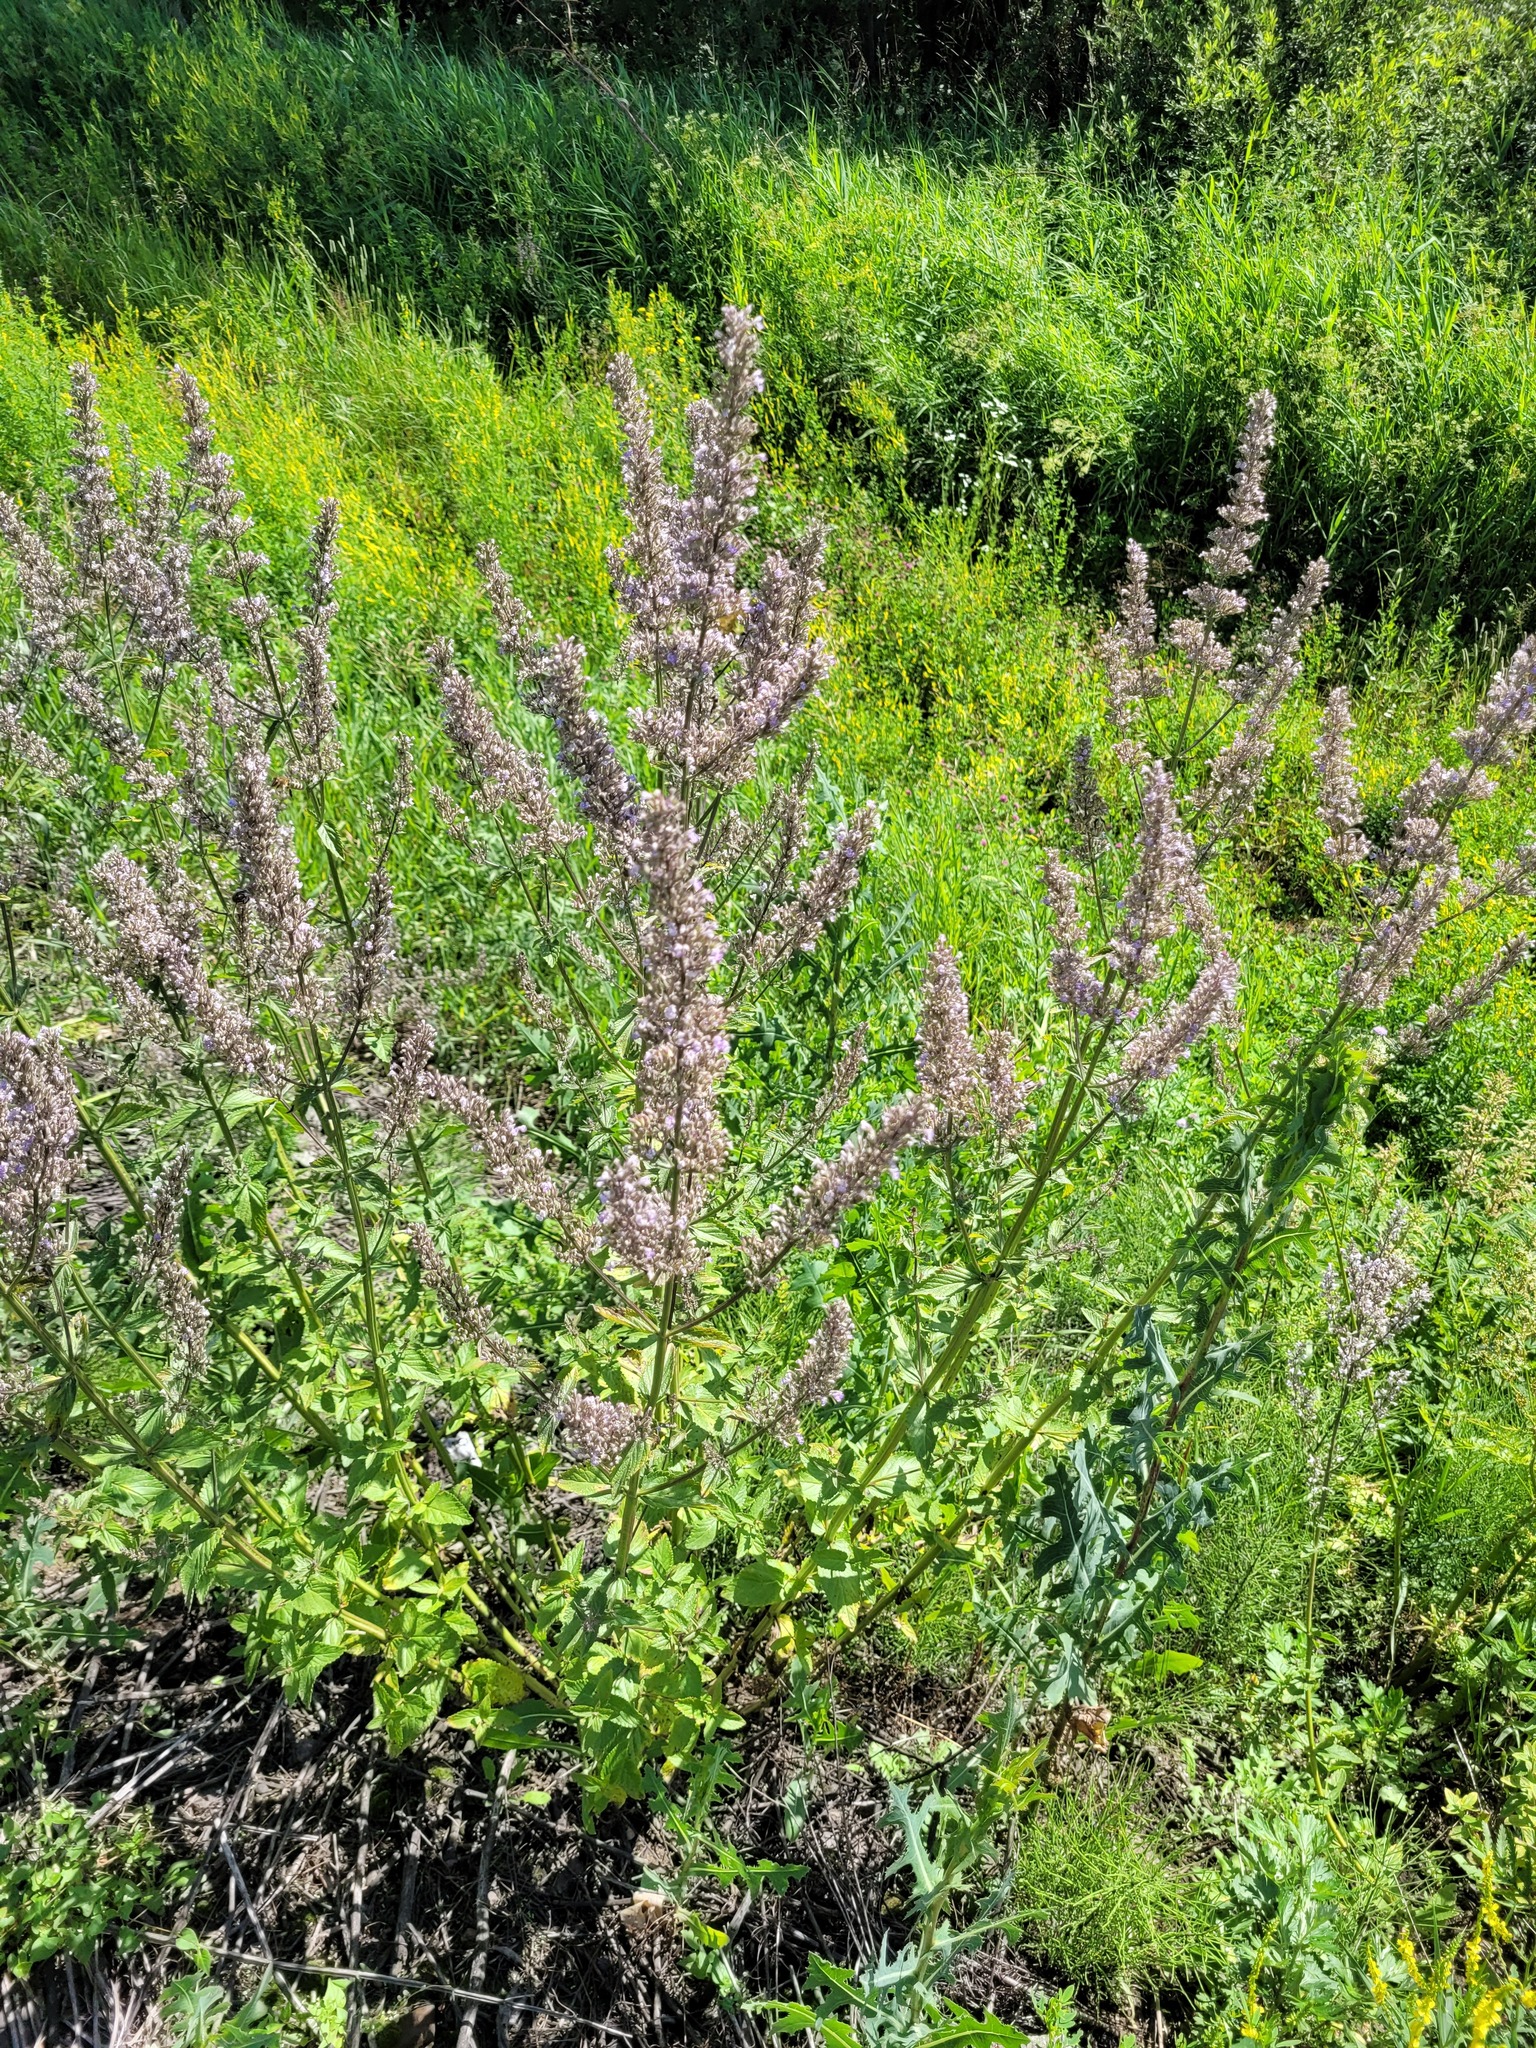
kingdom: Plantae
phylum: Tracheophyta
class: Magnoliopsida
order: Lamiales
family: Lamiaceae
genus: Nepeta
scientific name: Nepeta nuda
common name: Hairless catmint
